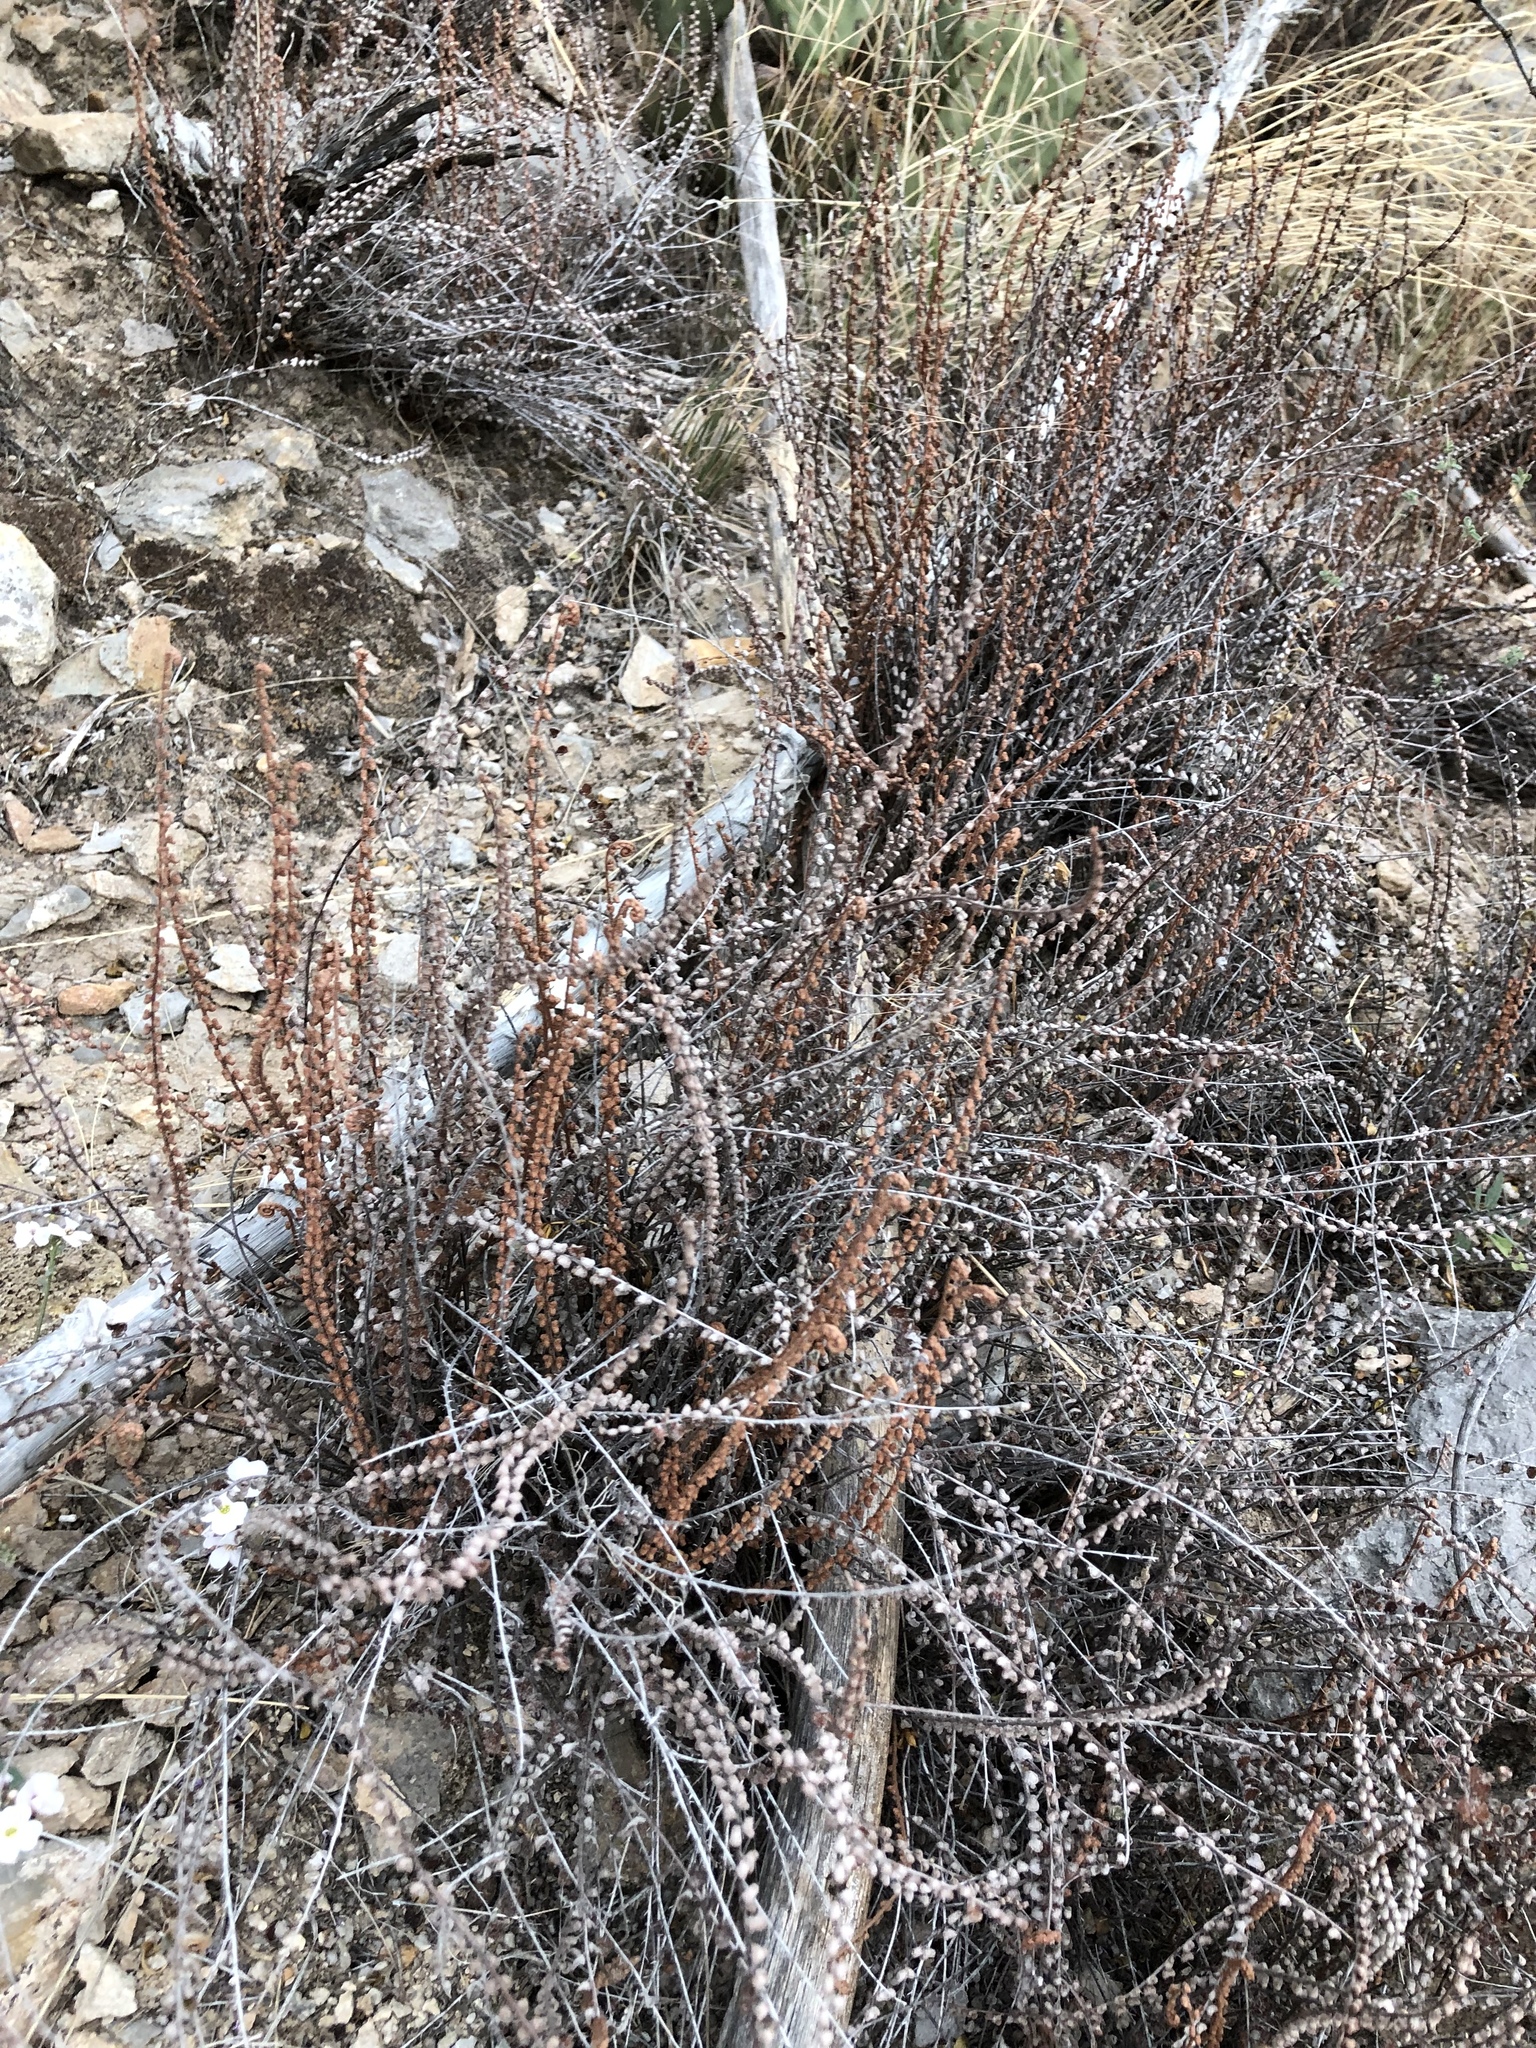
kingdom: Plantae
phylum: Tracheophyta
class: Polypodiopsida
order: Polypodiales
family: Pteridaceae
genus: Astrolepis
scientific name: Astrolepis cochisensis
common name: Scaly cloak fern
